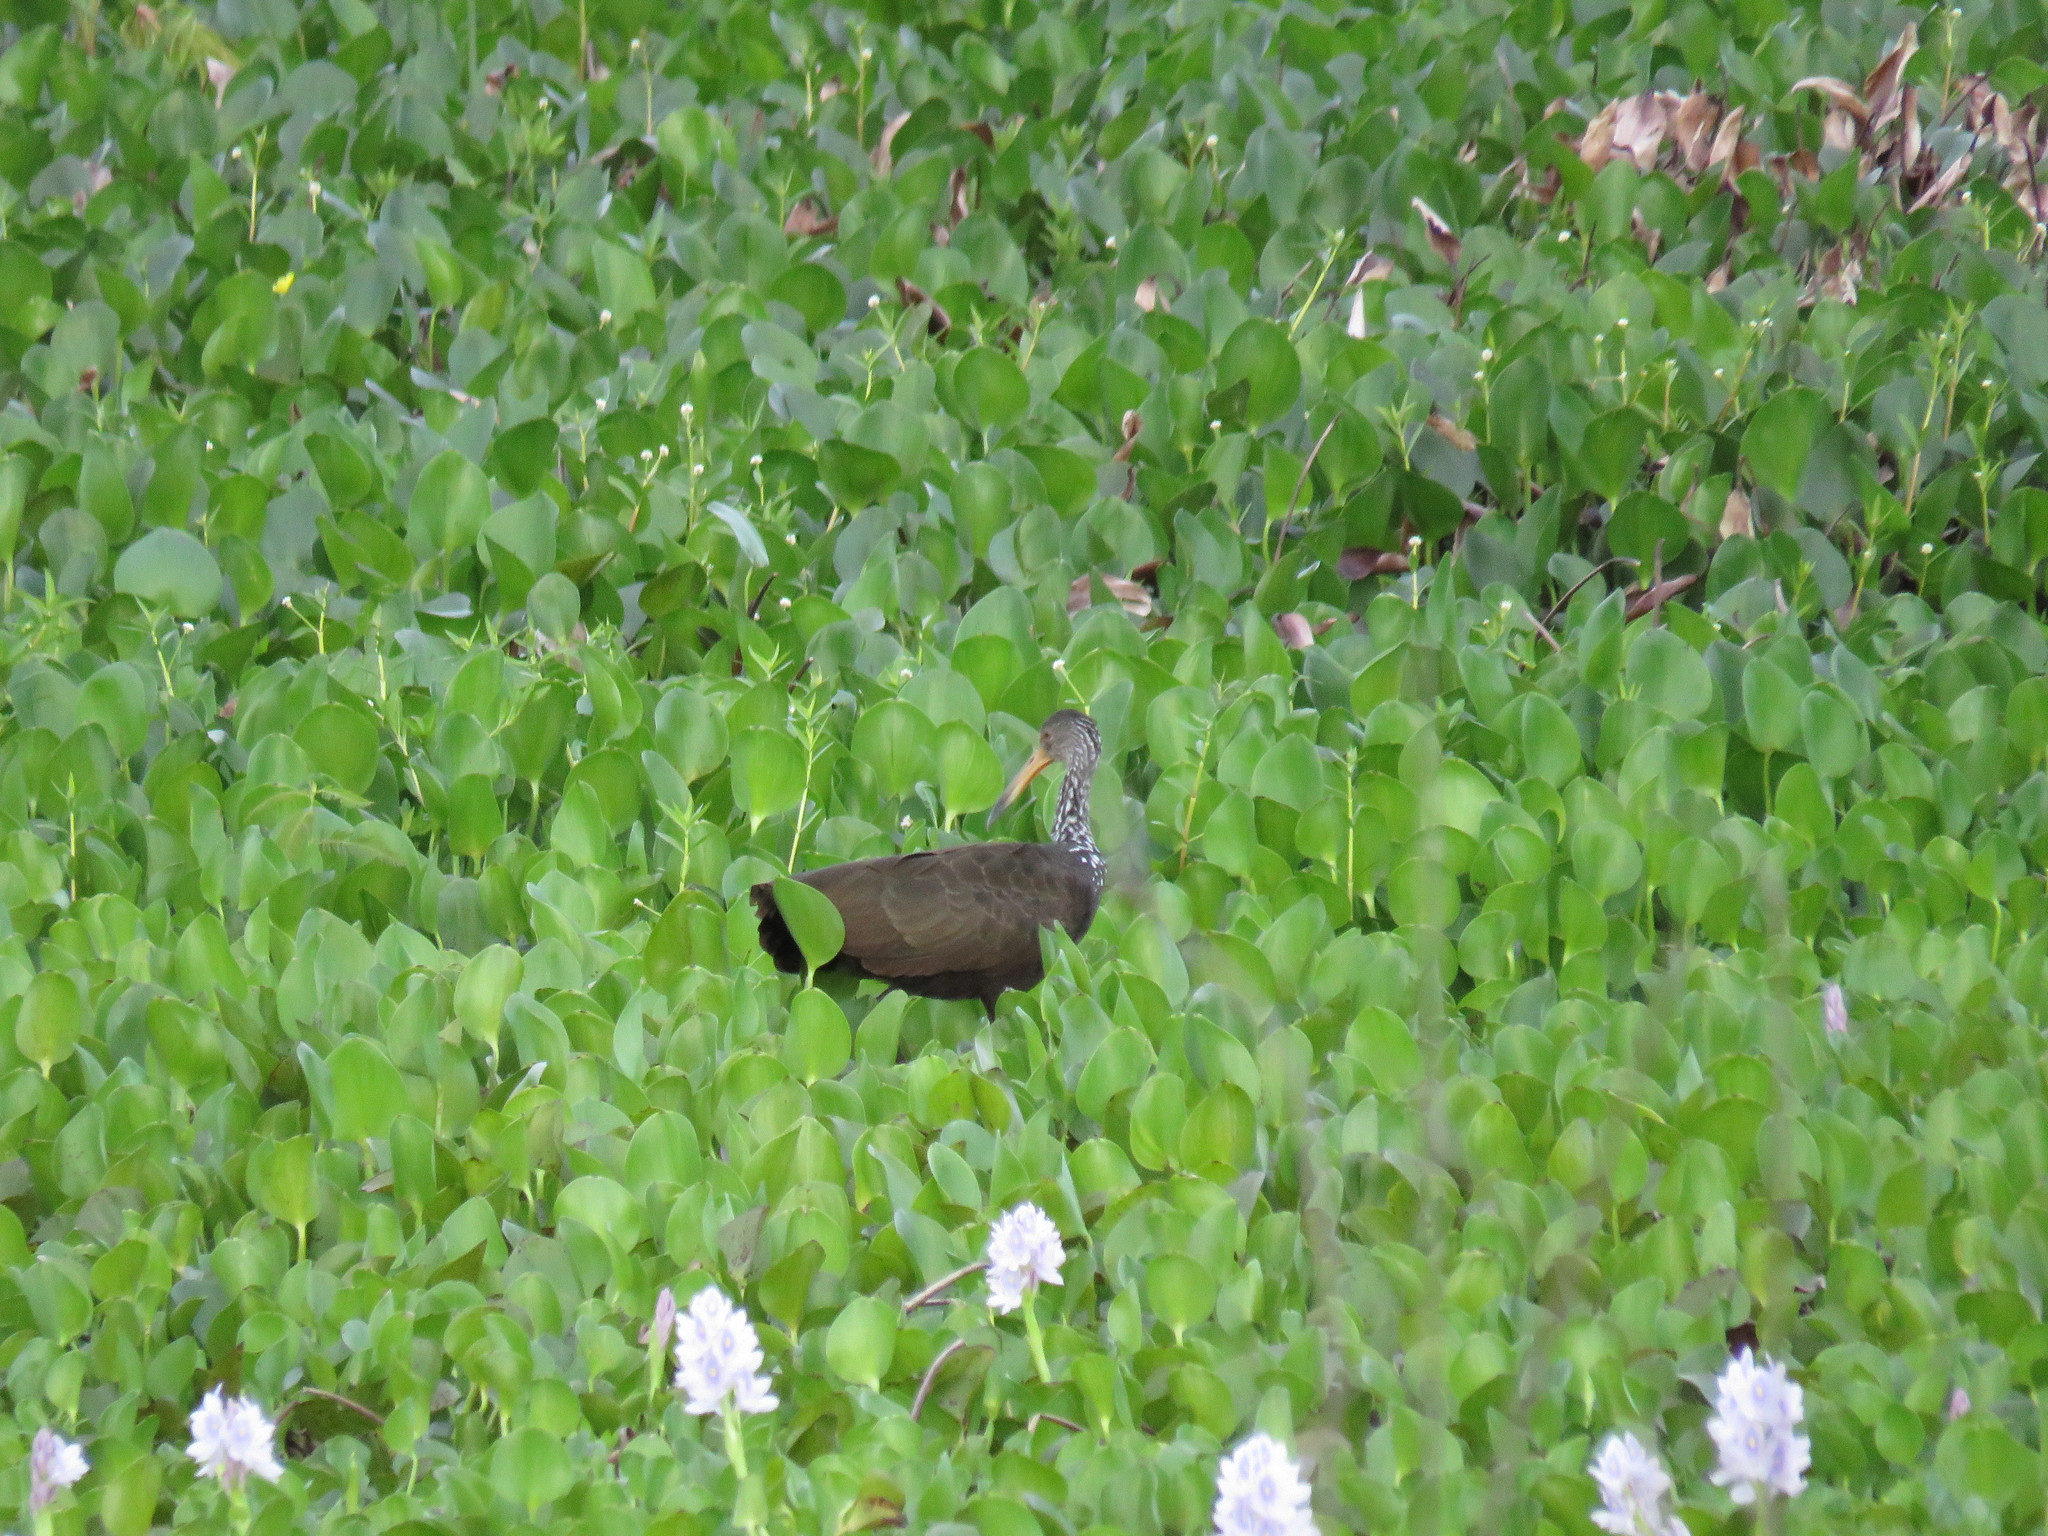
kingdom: Animalia
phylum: Chordata
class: Aves
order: Gruiformes
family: Aramidae
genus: Aramus
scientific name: Aramus guarauna
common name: Limpkin
